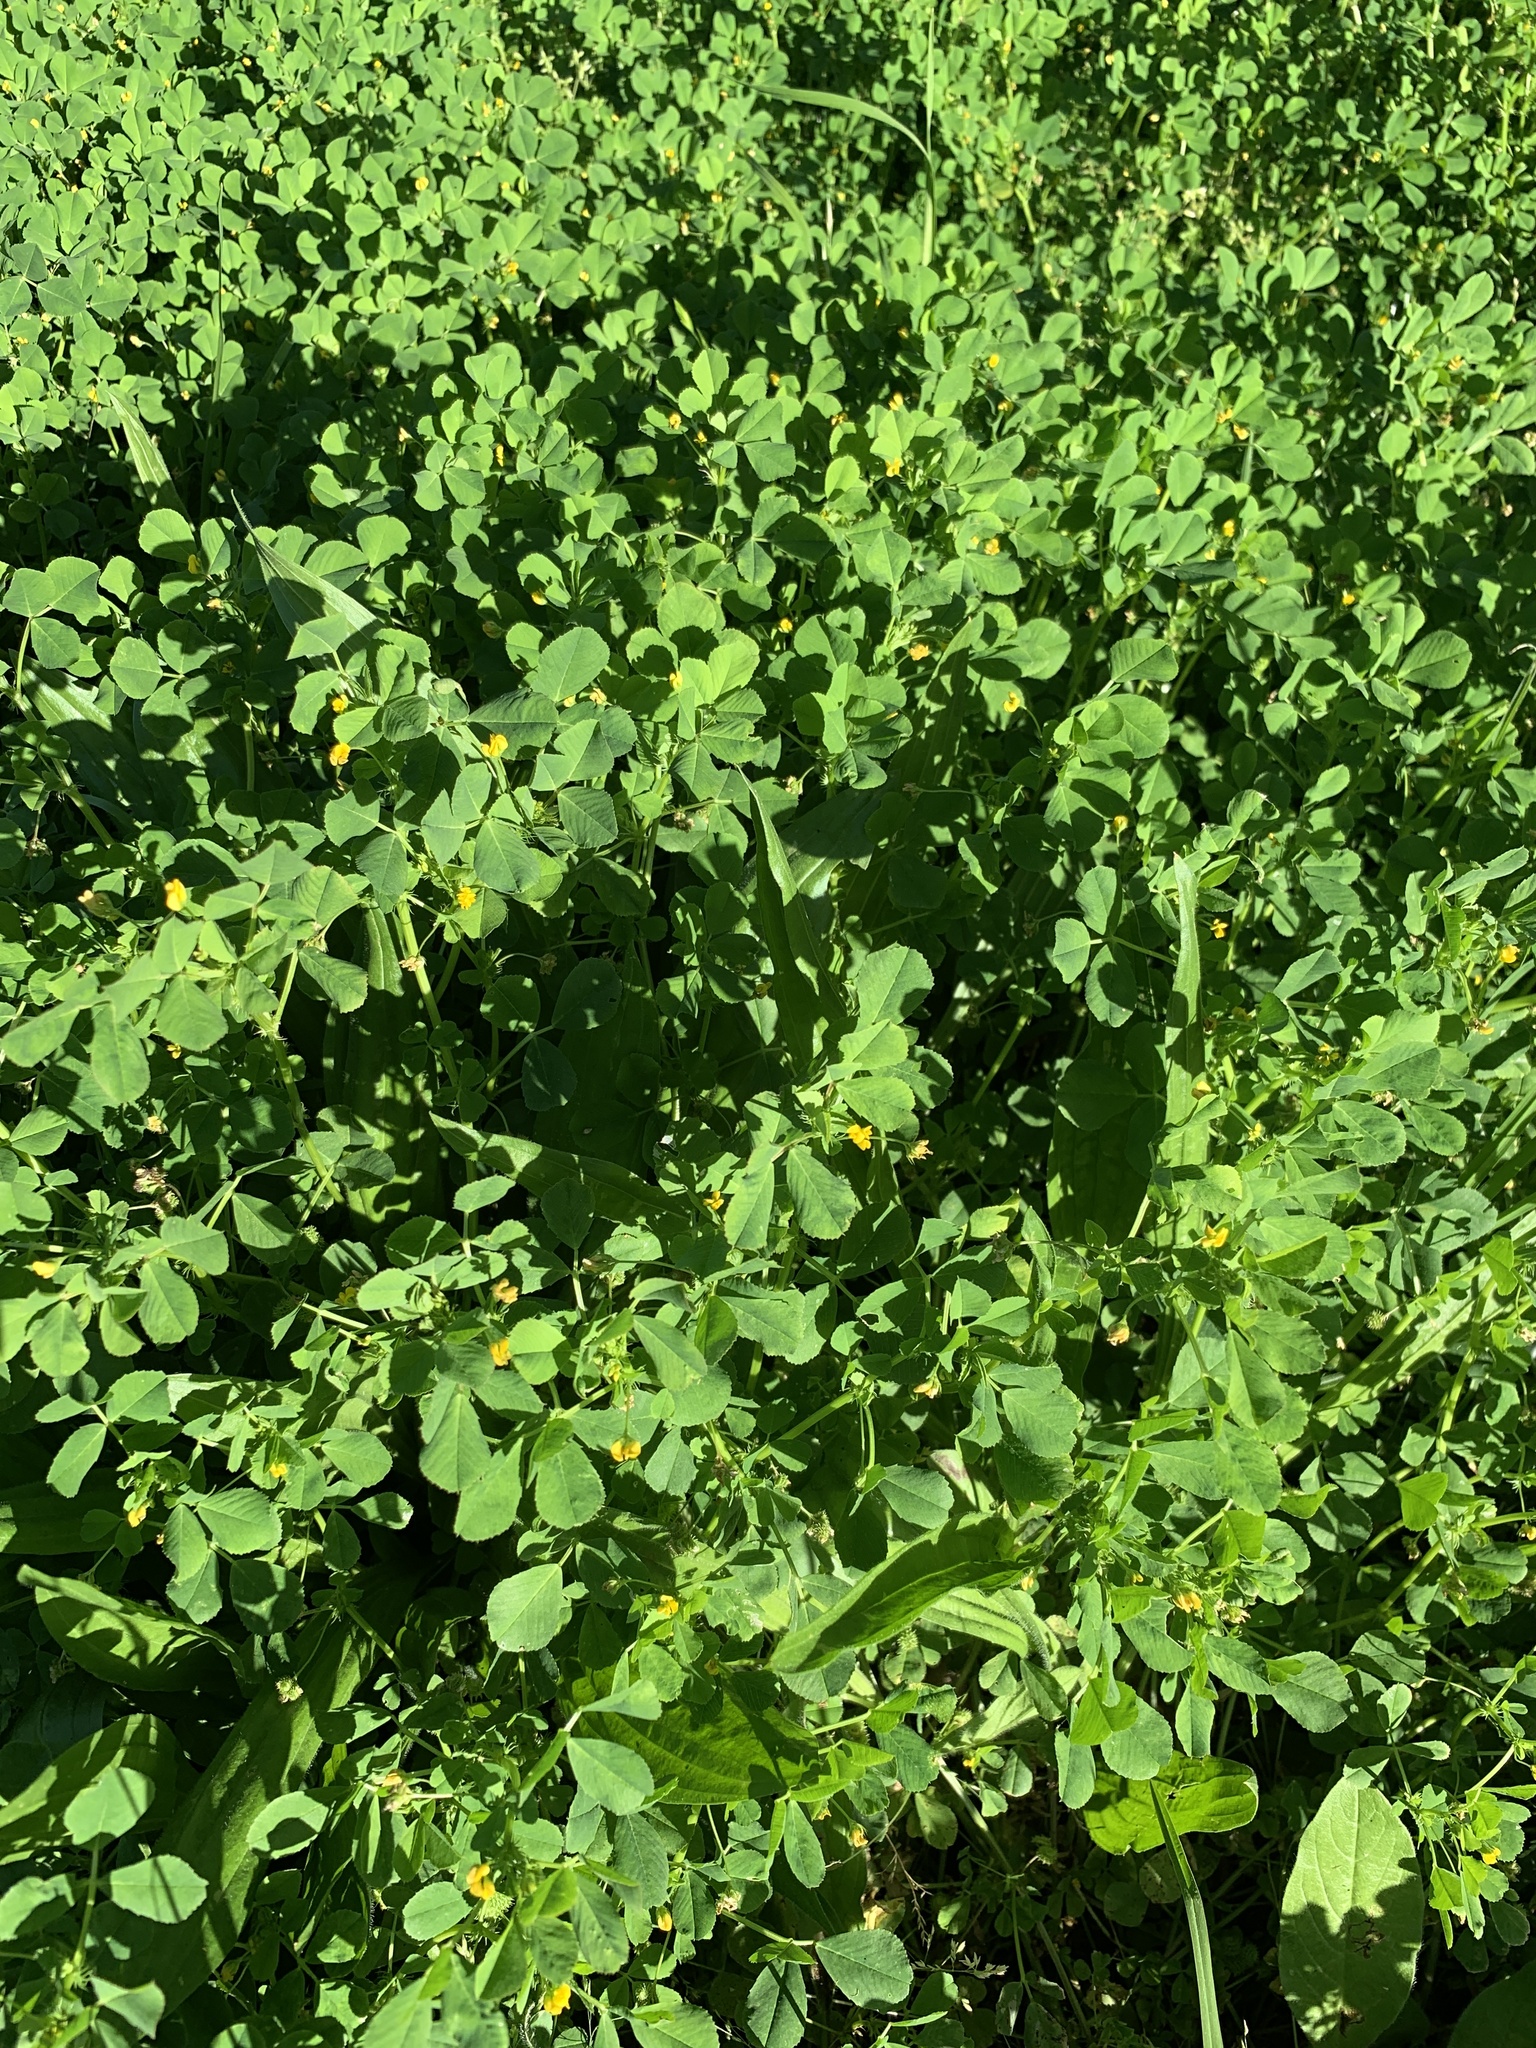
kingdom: Plantae
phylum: Tracheophyta
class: Magnoliopsida
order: Fabales
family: Fabaceae
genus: Medicago
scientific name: Medicago polymorpha
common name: Burclover
